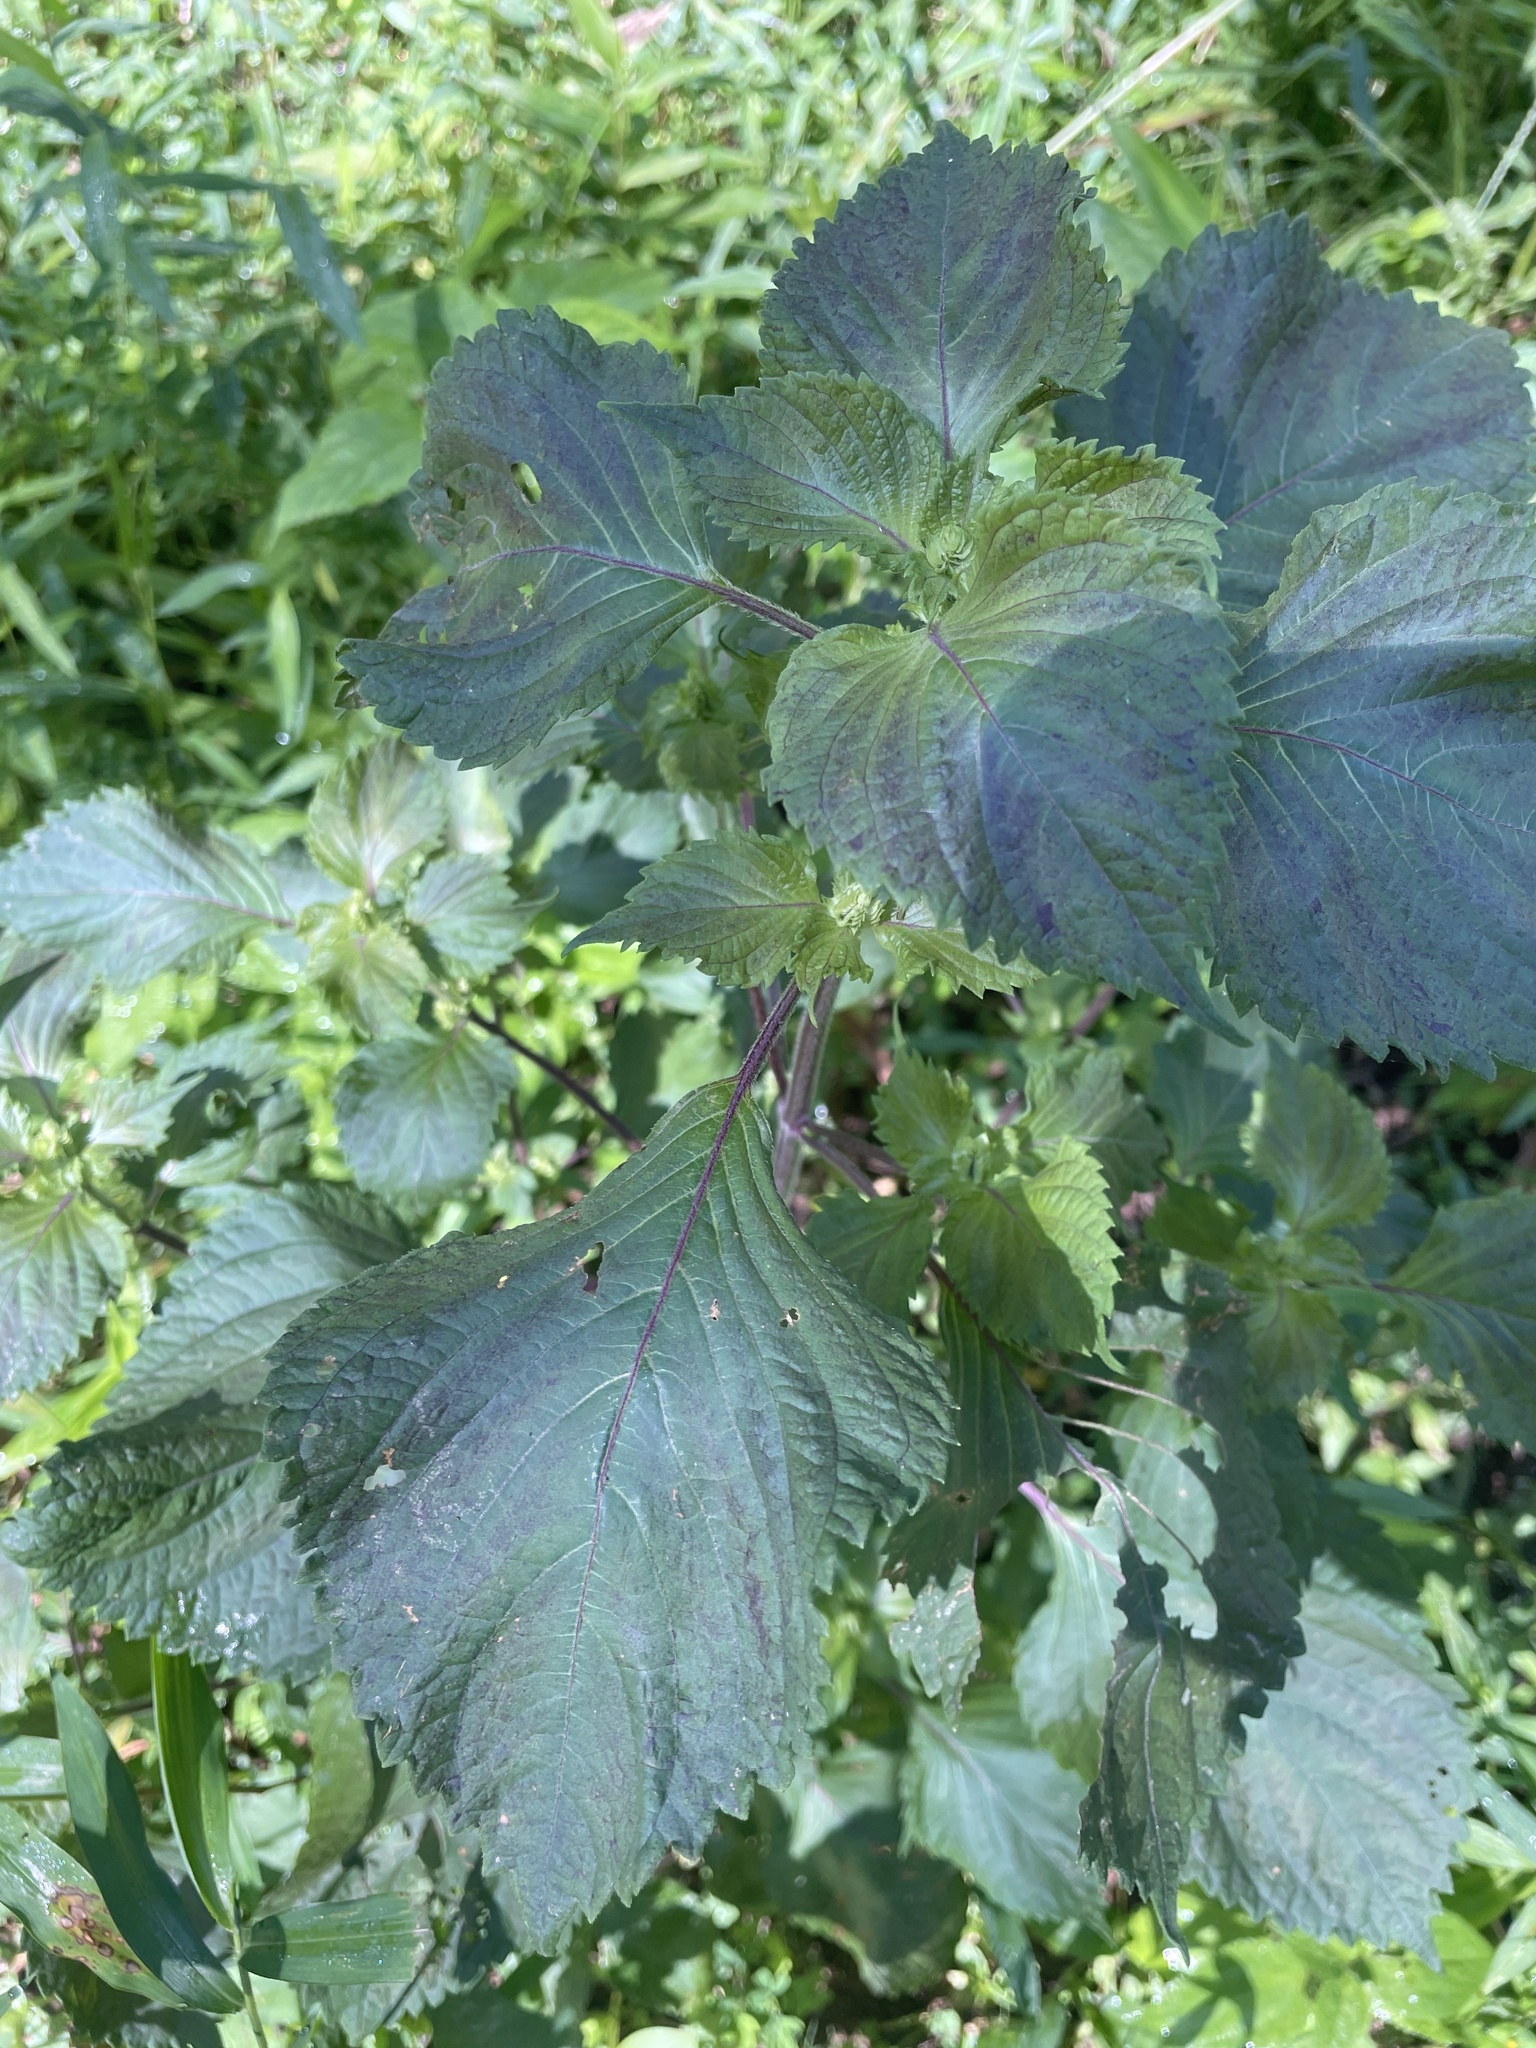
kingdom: Plantae
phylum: Tracheophyta
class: Magnoliopsida
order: Lamiales
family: Lamiaceae
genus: Perilla
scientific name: Perilla frutescens
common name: Perilla
